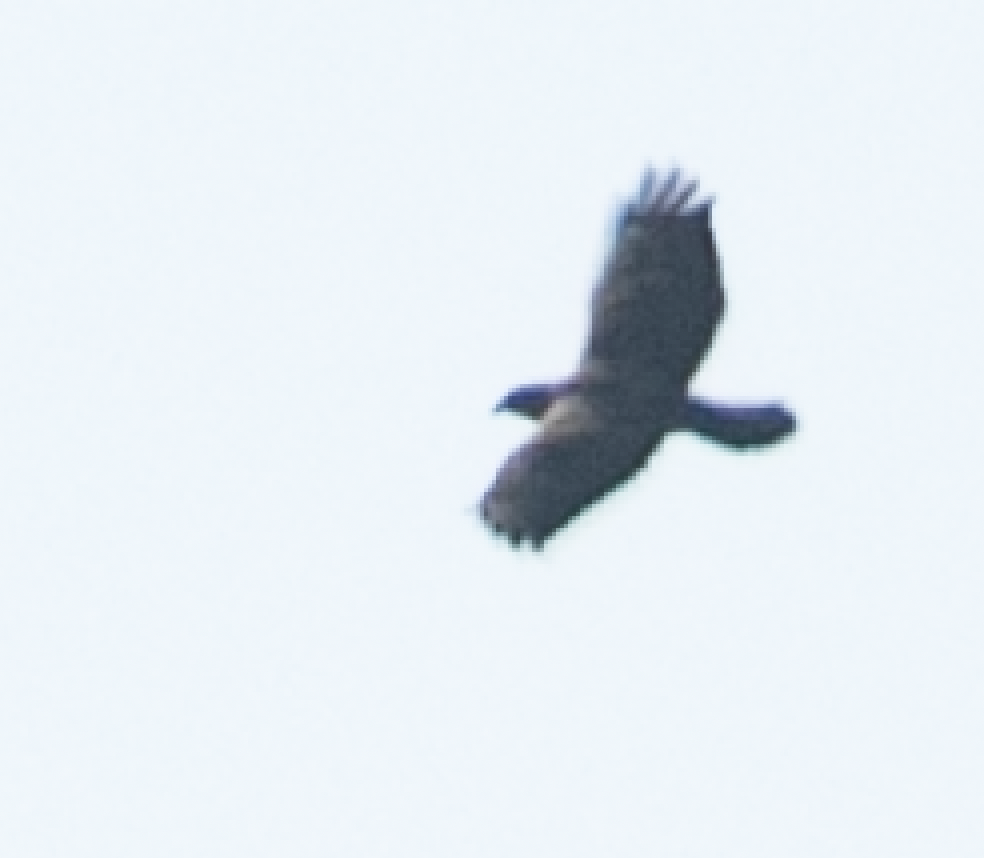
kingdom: Animalia
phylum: Chordata
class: Aves
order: Accipitriformes
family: Accipitridae
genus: Buteo
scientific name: Buteo buteo
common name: Common buzzard
